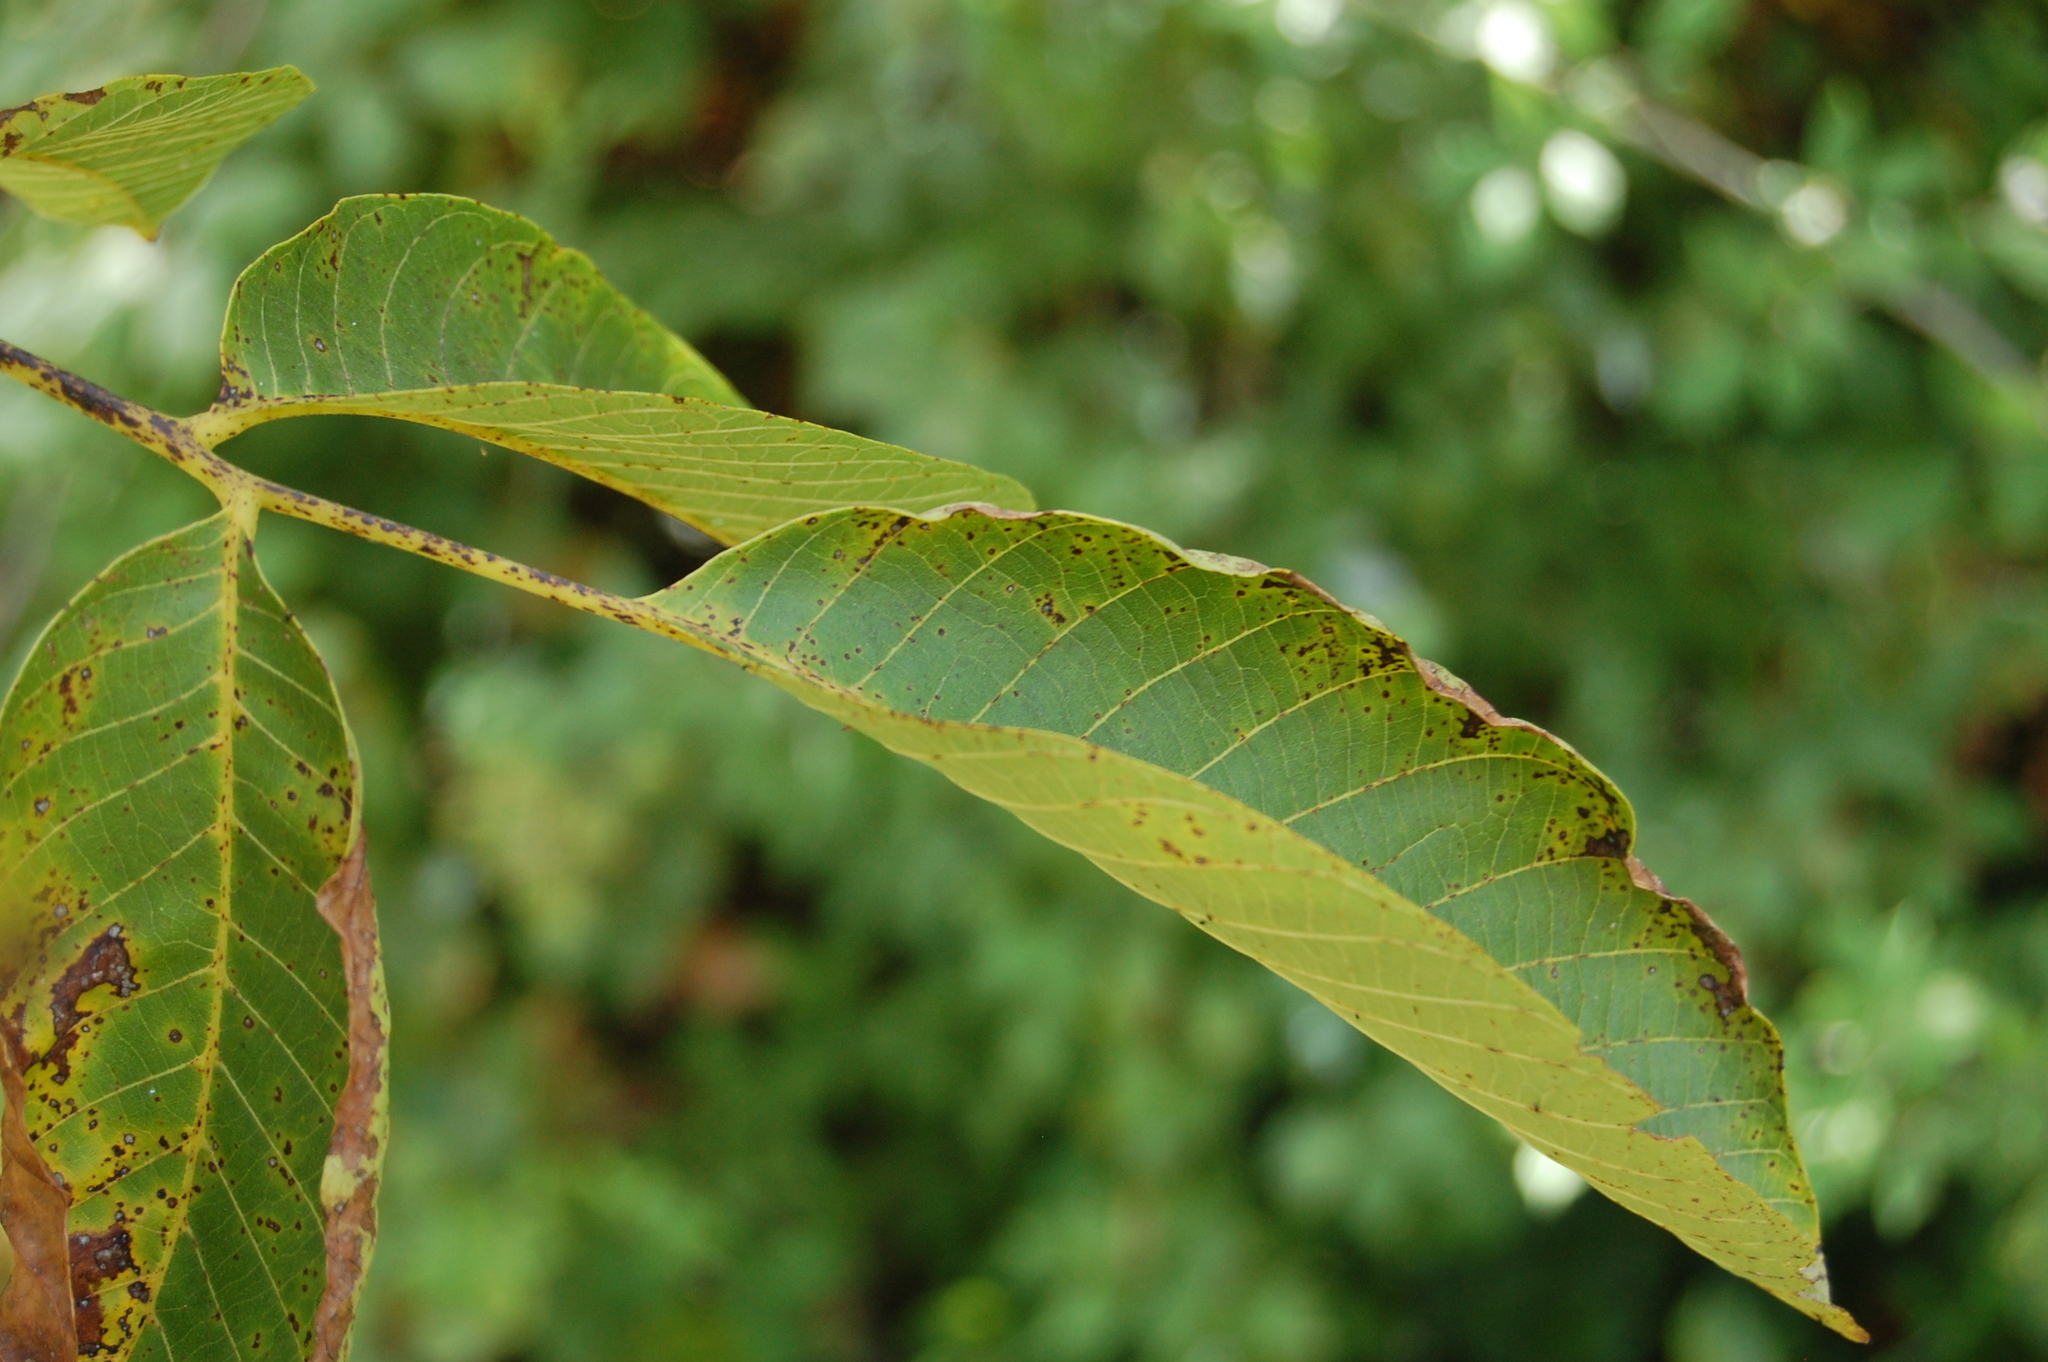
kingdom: Plantae
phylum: Tracheophyta
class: Magnoliopsida
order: Fagales
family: Juglandaceae
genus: Juglans
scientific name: Juglans regia
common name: Walnut
